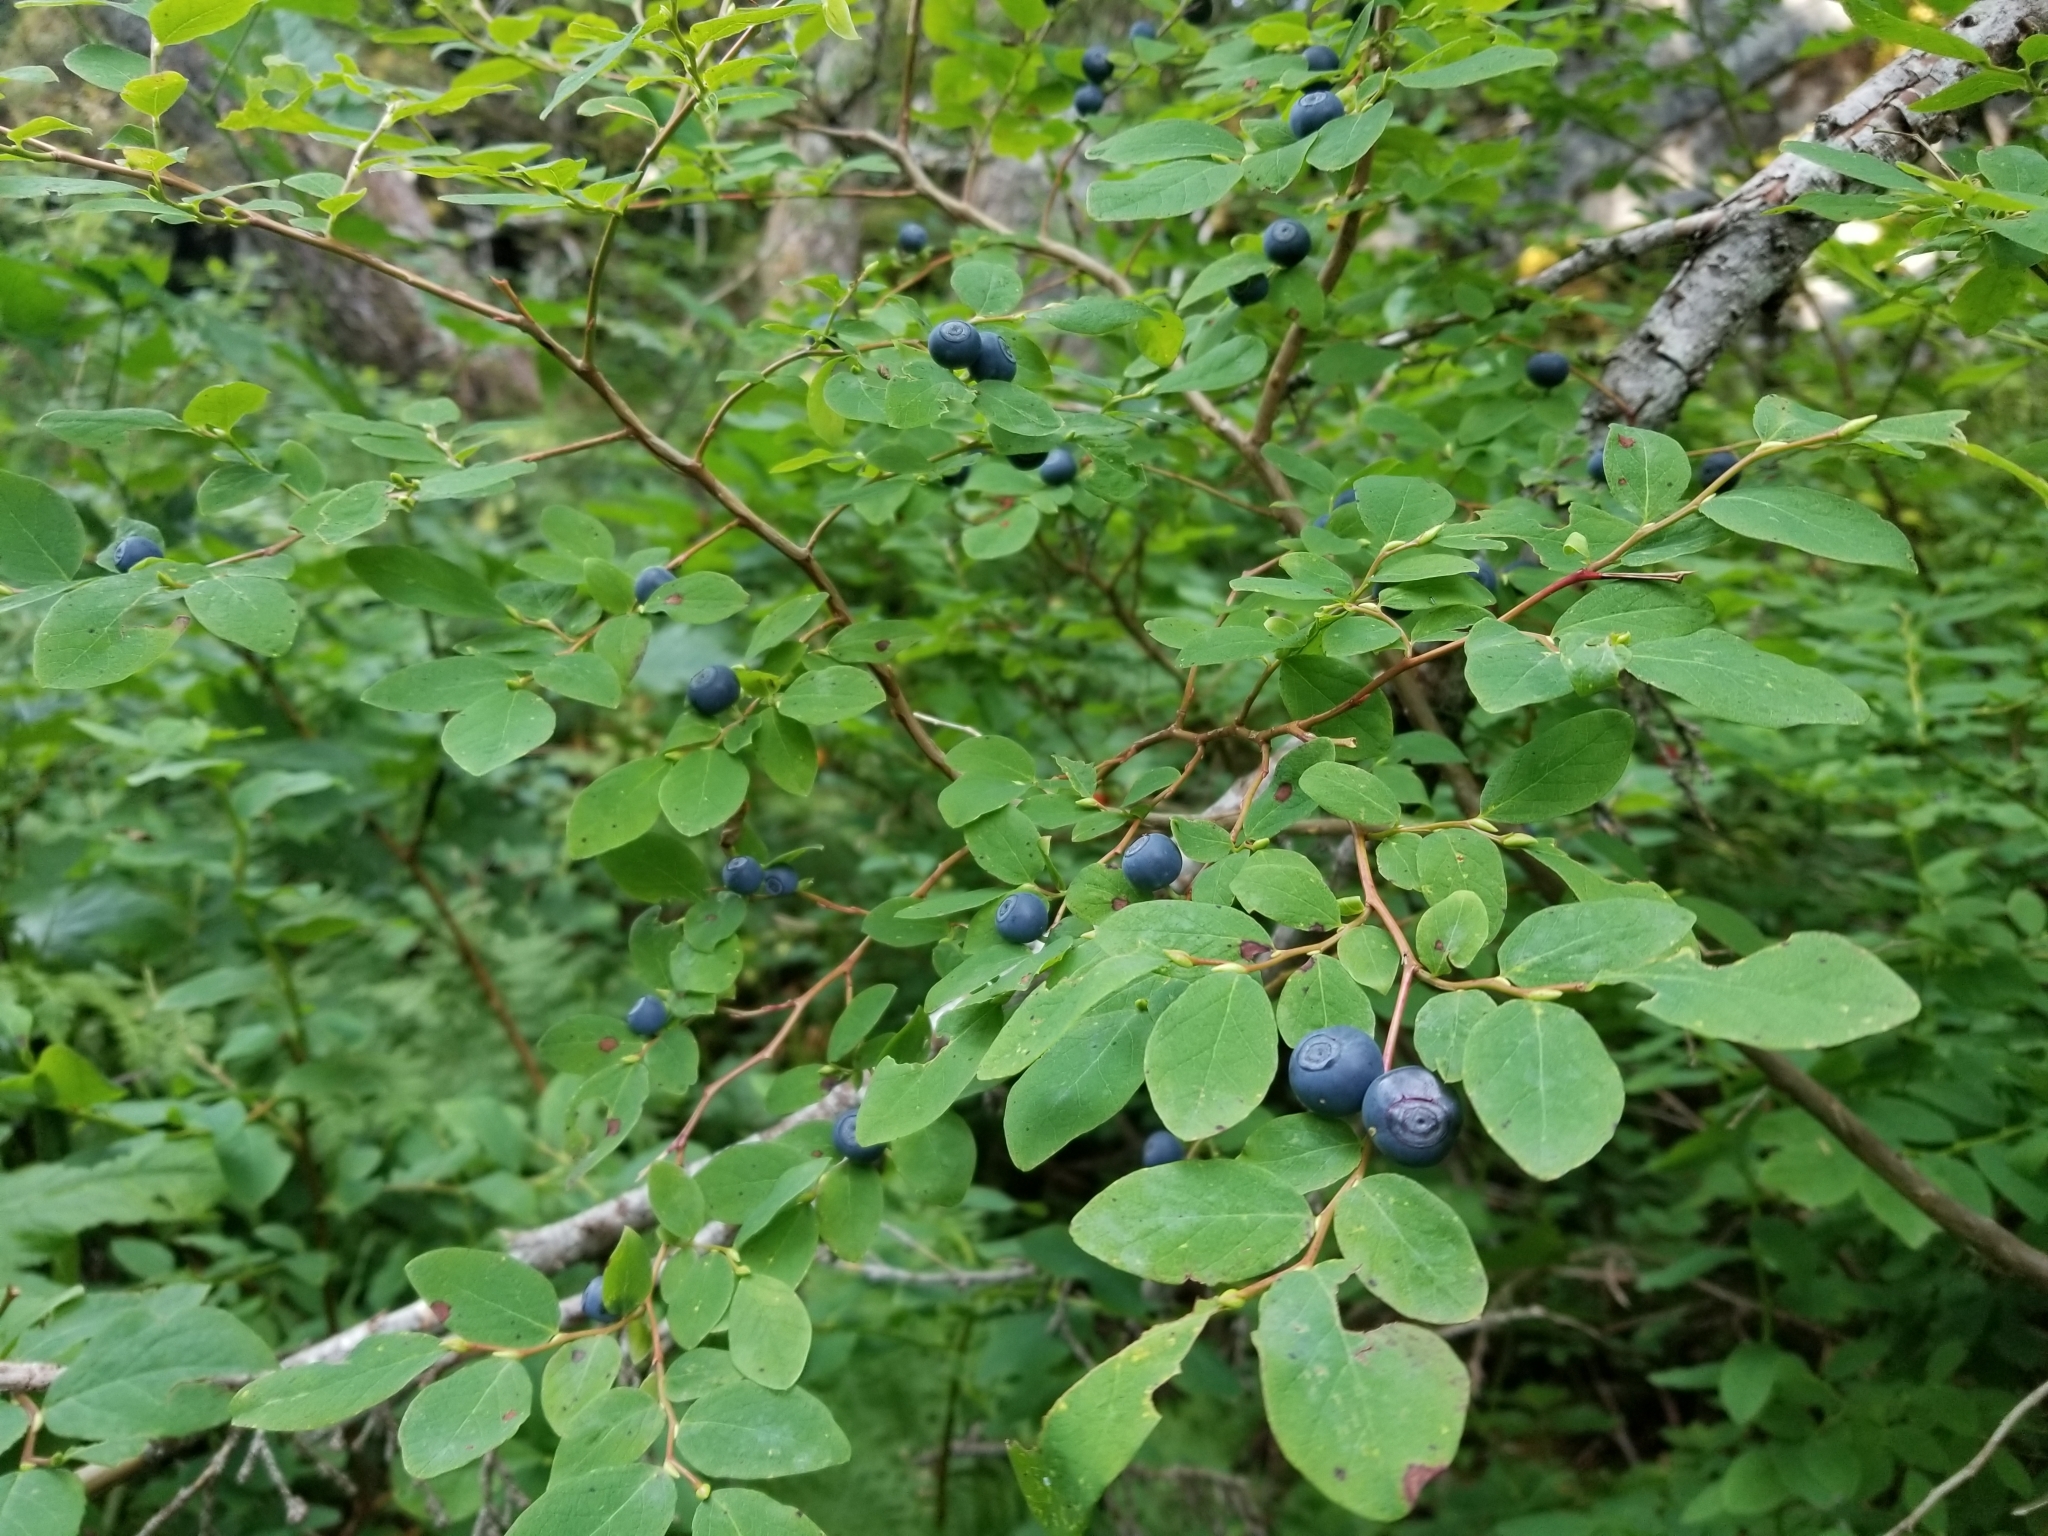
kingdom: Plantae
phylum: Tracheophyta
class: Magnoliopsida
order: Ericales
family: Ericaceae
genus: Vaccinium
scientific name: Vaccinium ovalifolium
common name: Early blueberry
